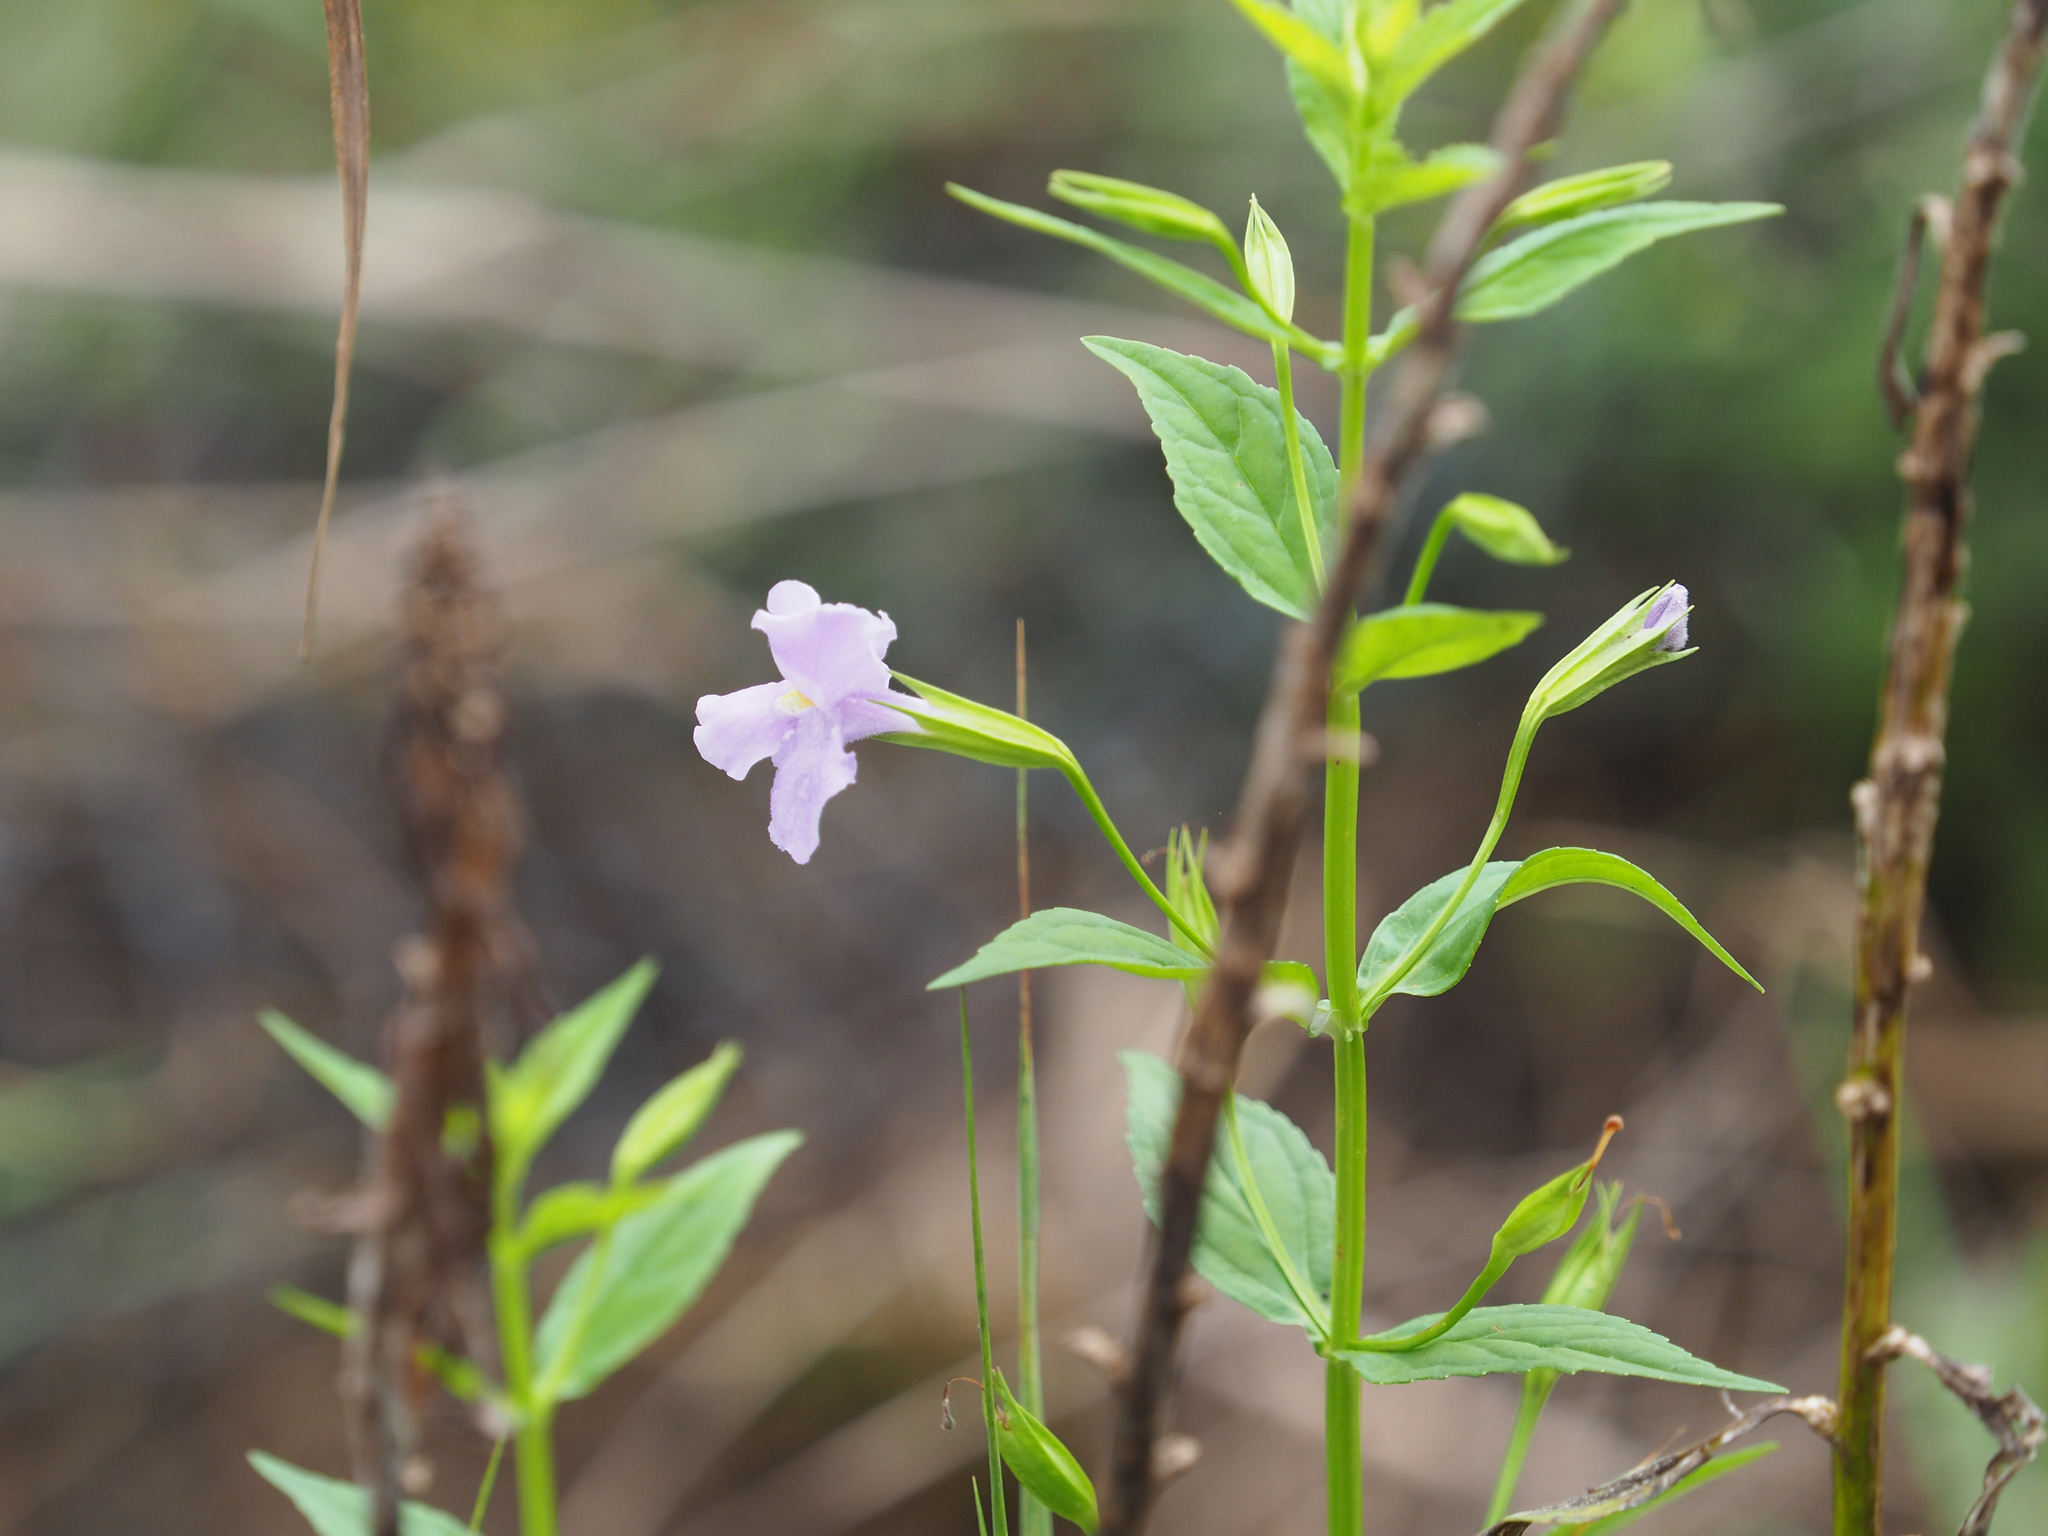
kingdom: Plantae
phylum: Tracheophyta
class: Magnoliopsida
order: Lamiales
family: Phrymaceae
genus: Mimulus
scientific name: Mimulus ringens
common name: Allegheny monkeyflower
